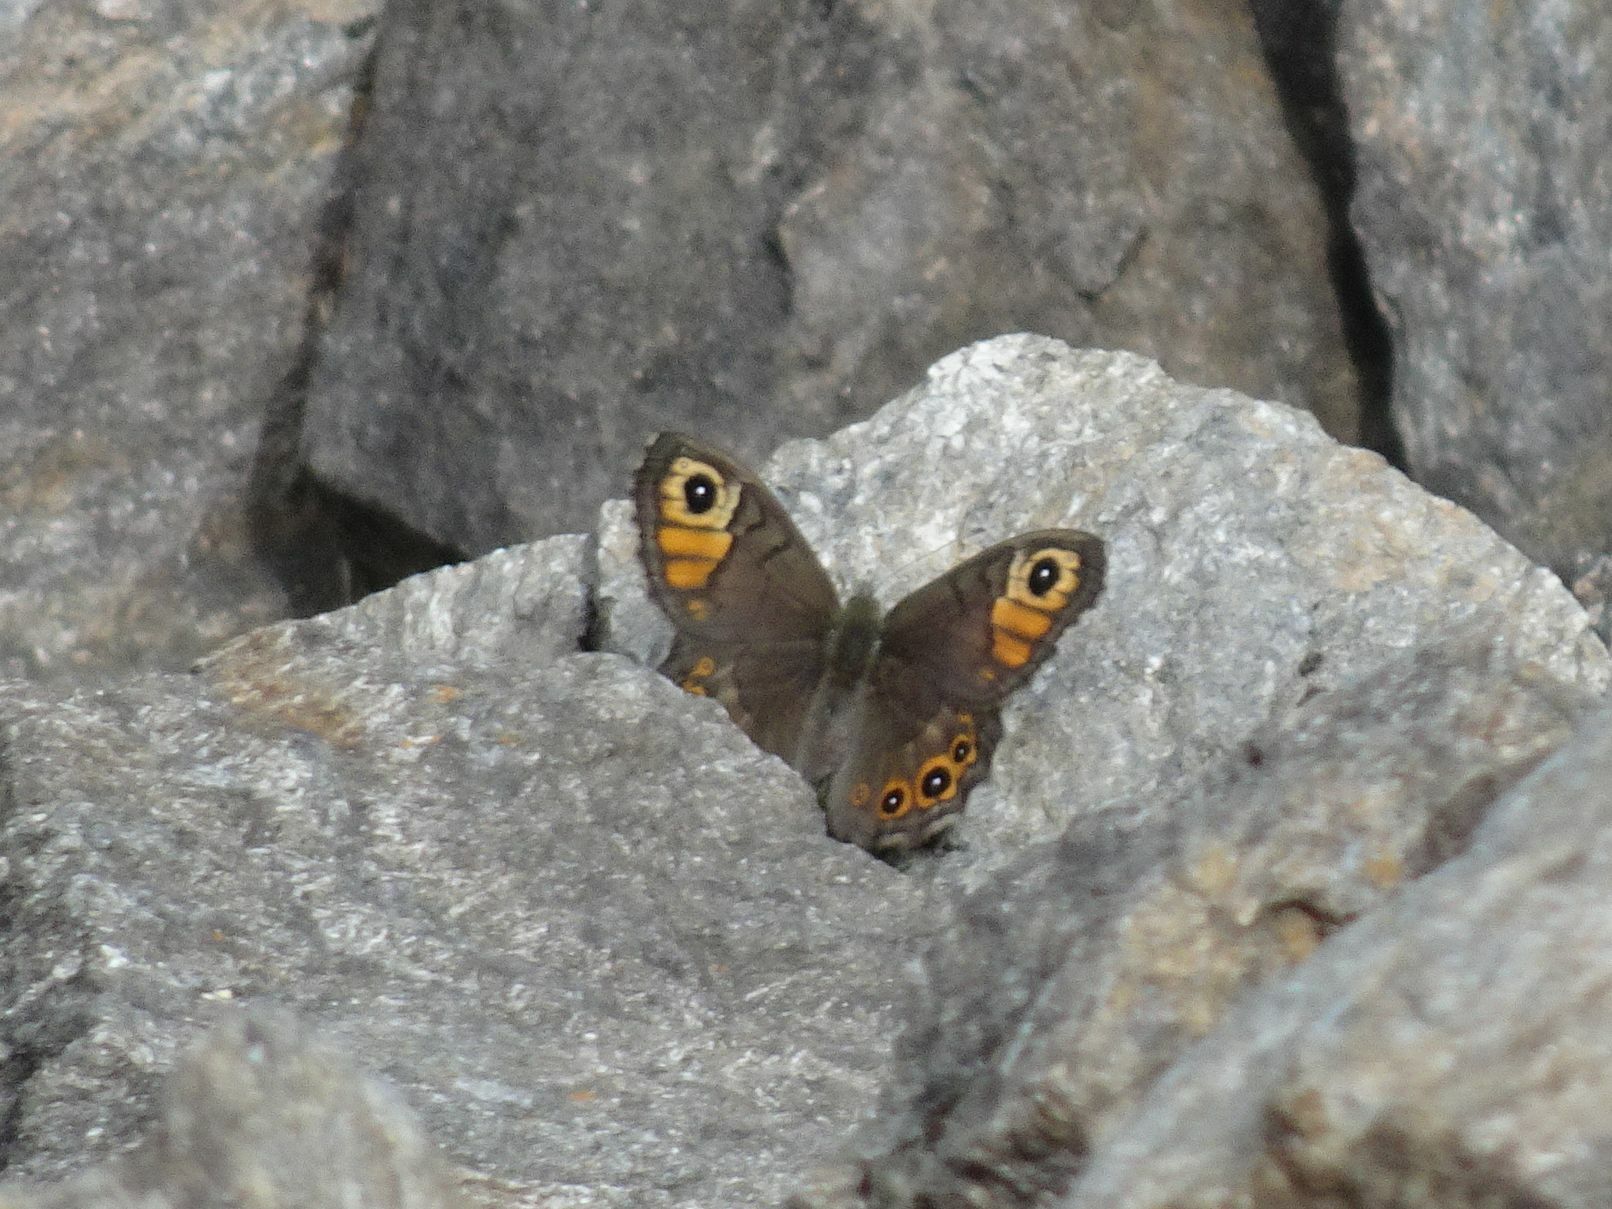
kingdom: Animalia
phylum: Arthropoda
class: Insecta
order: Lepidoptera
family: Nymphalidae
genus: Pararge
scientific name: Pararge petropolitana
